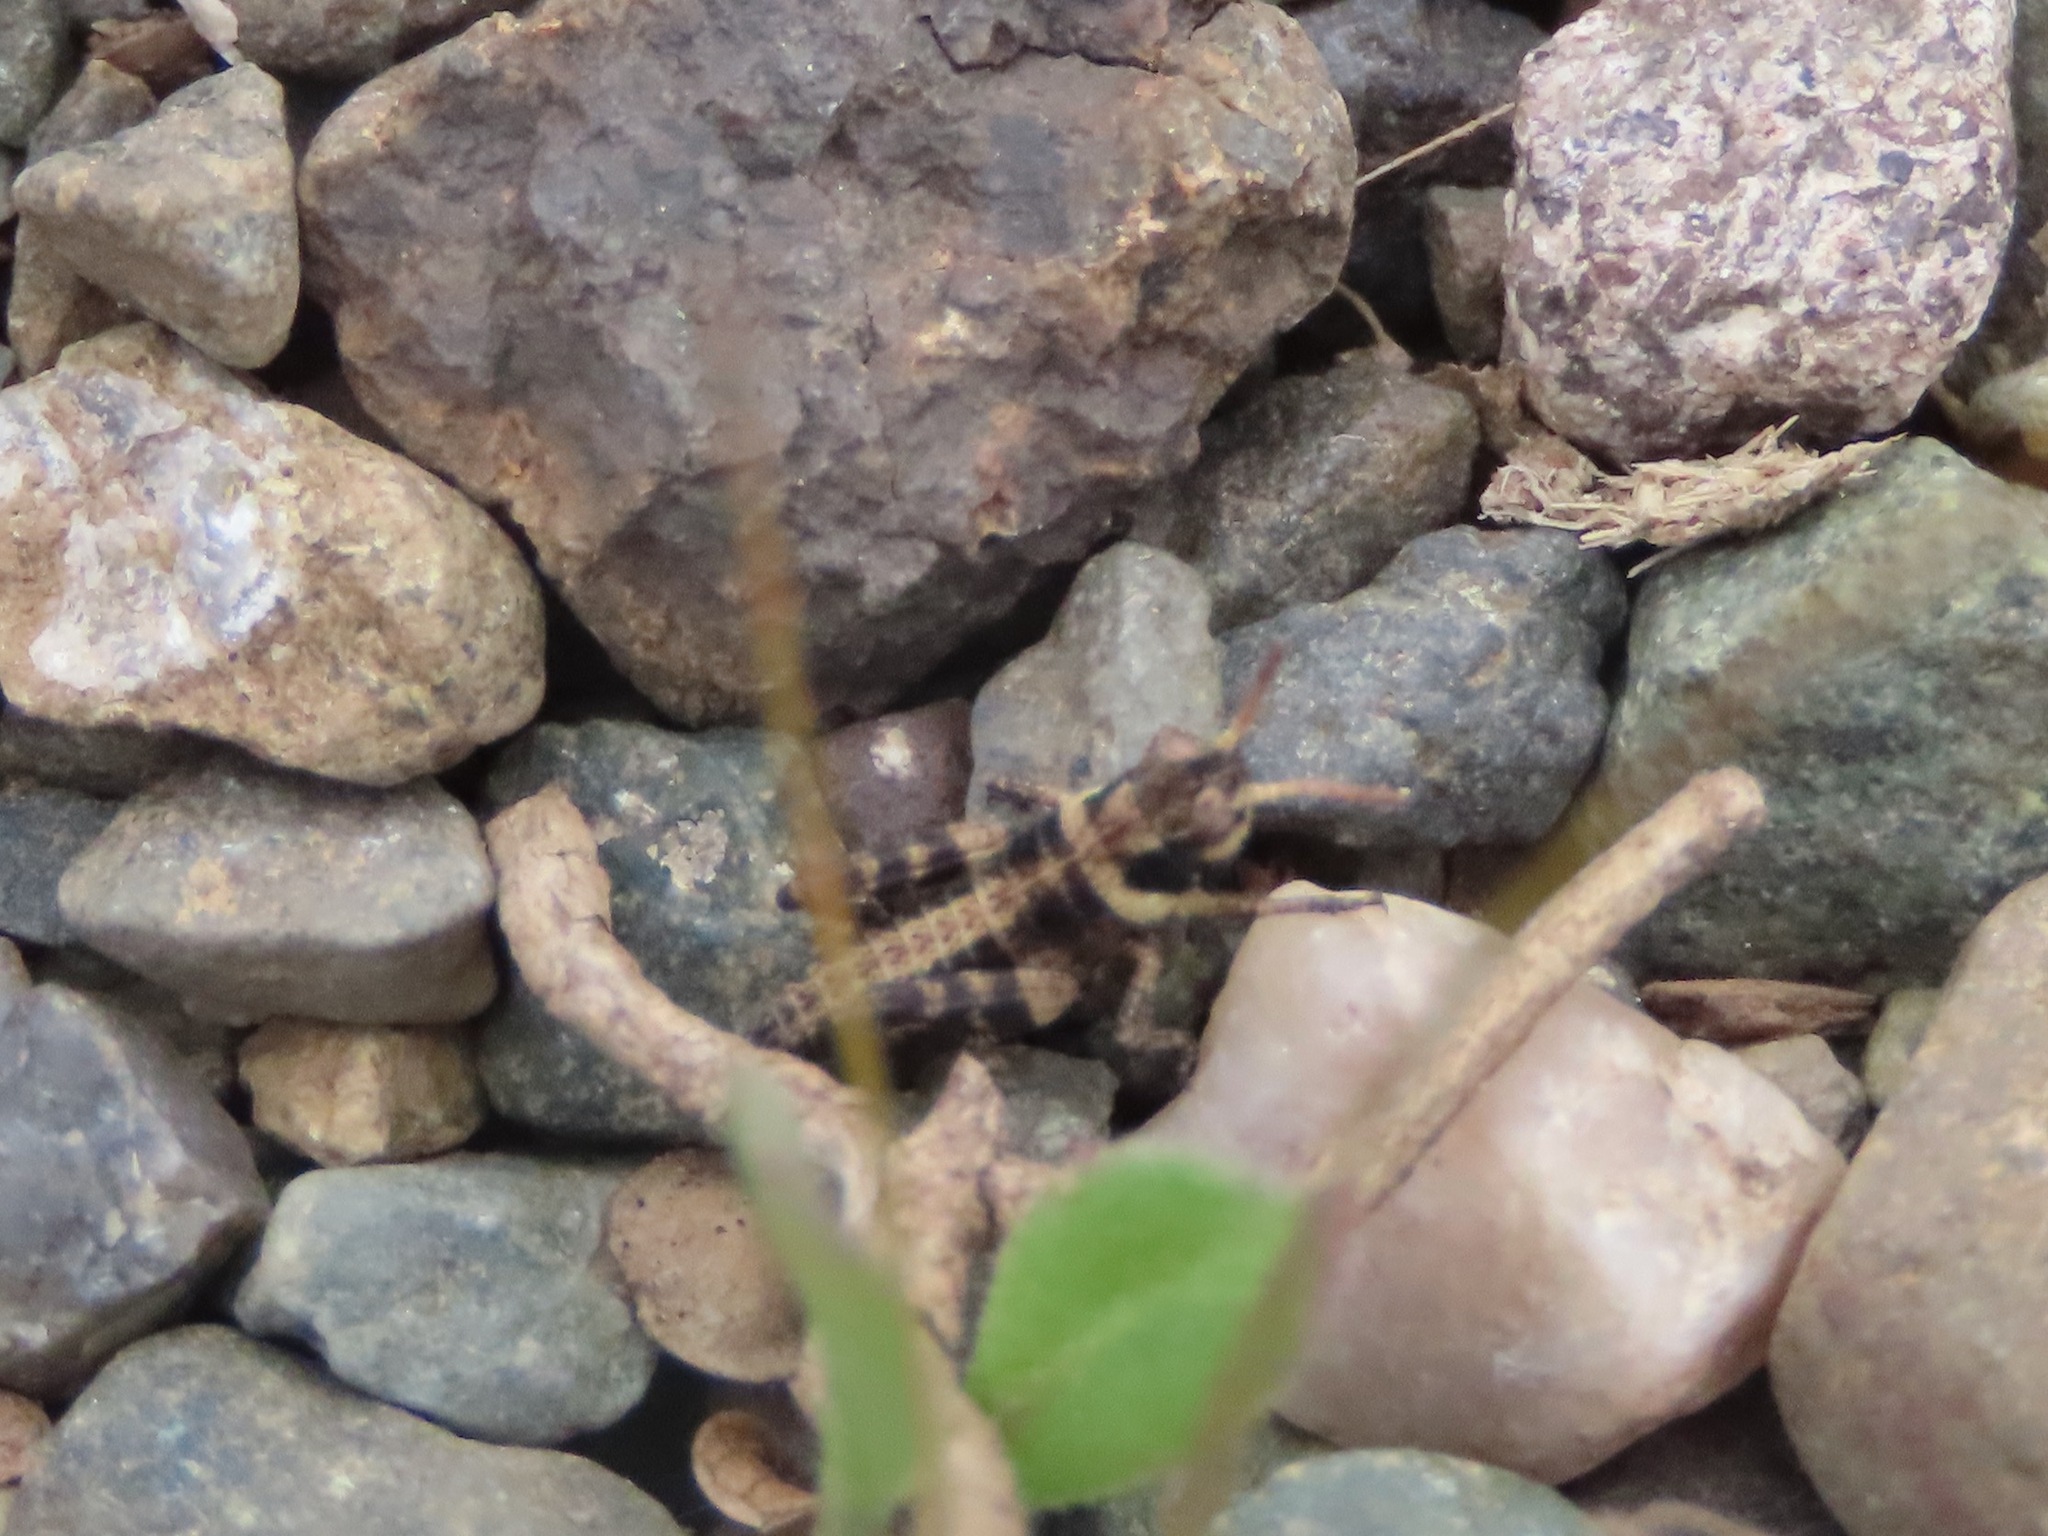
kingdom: Animalia
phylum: Arthropoda
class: Insecta
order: Orthoptera
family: Acrididae
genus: Camnula
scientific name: Camnula pellucida
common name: Clear-winged grasshopper
